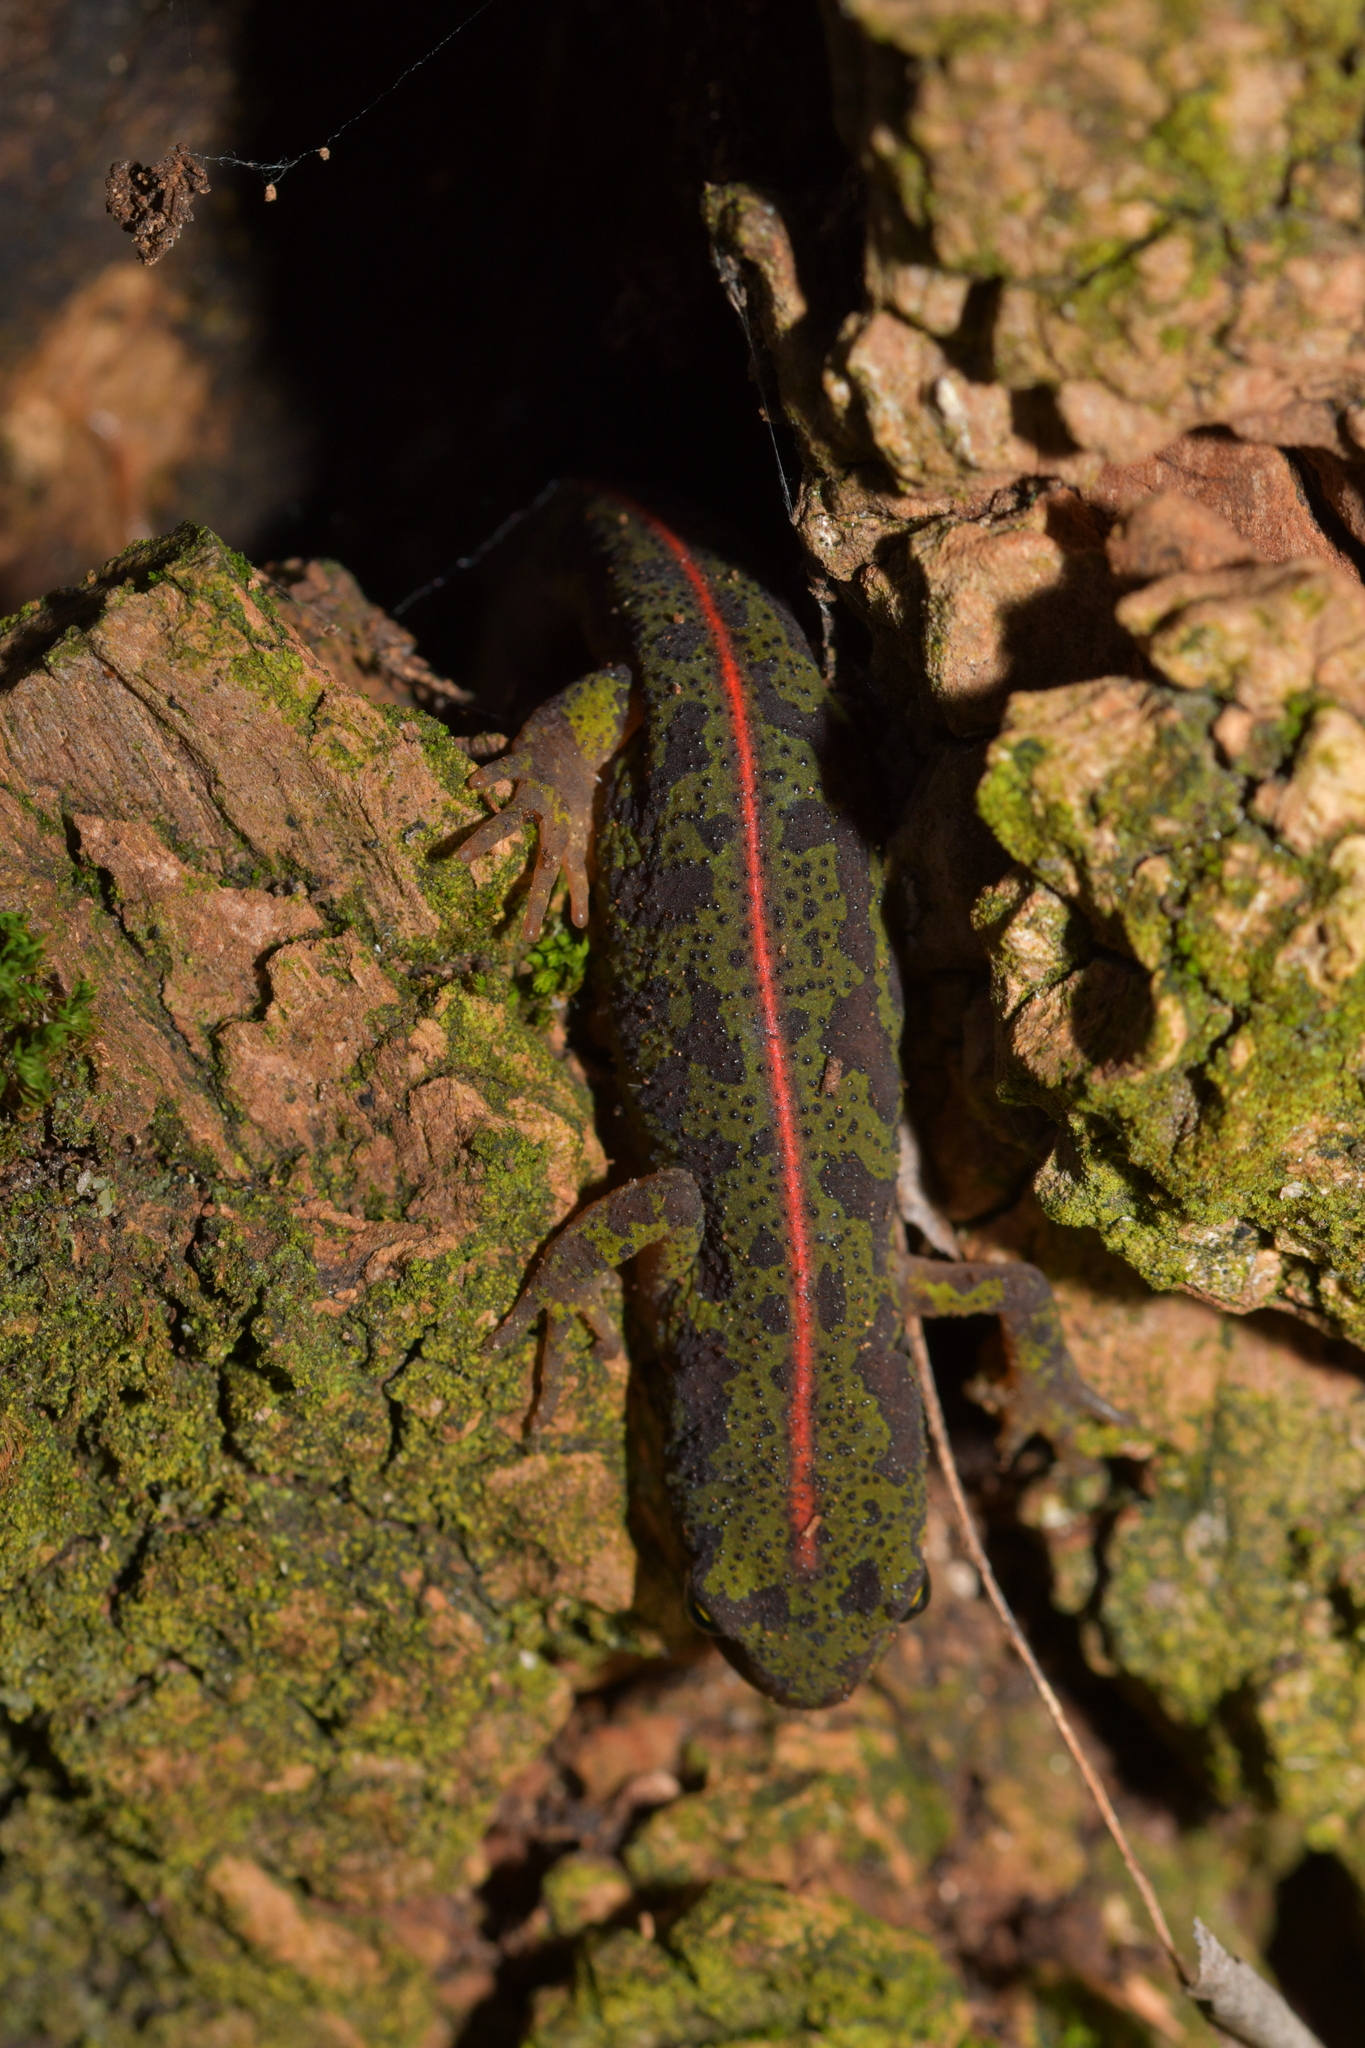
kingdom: Animalia
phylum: Chordata
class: Amphibia
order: Caudata
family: Salamandridae
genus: Triturus
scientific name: Triturus pygmaeus
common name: Southern marbled newt
